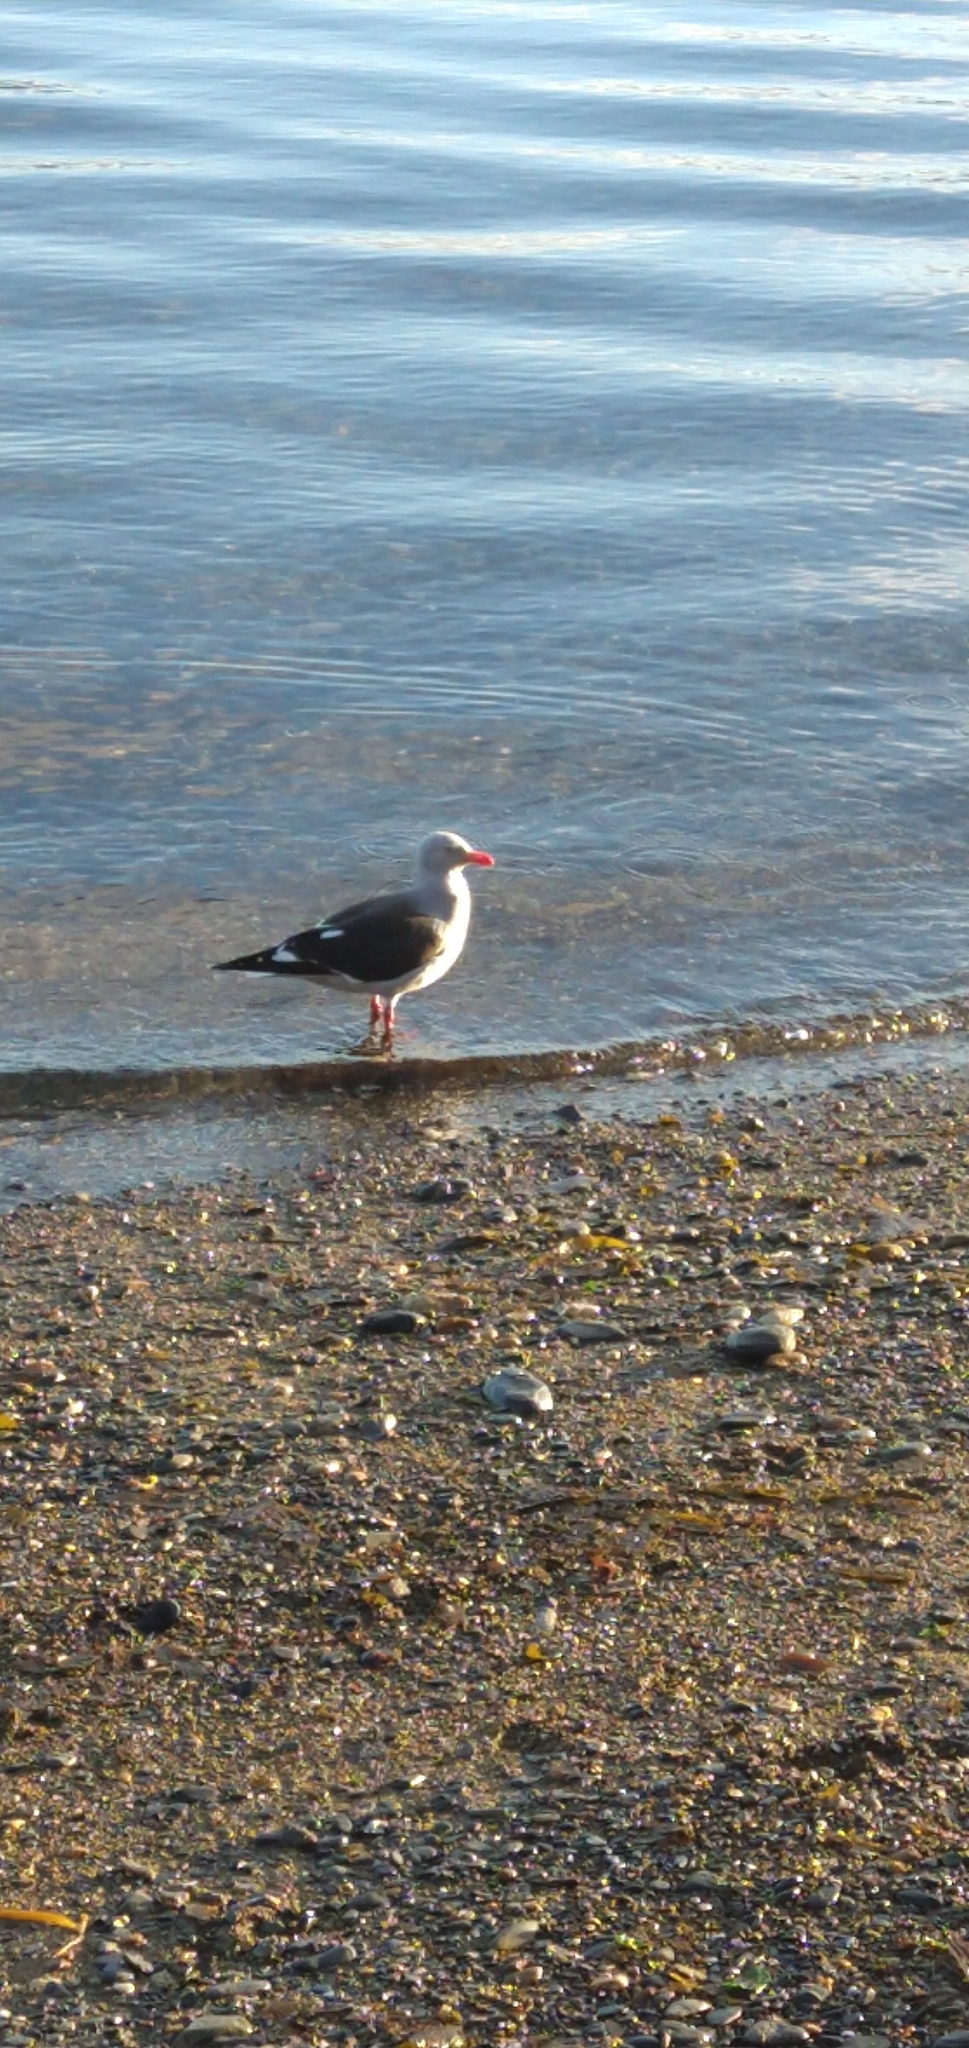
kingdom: Animalia
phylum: Chordata
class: Aves
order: Charadriiformes
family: Laridae
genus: Leucophaeus
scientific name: Leucophaeus scoresbii
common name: Dolphin gull
